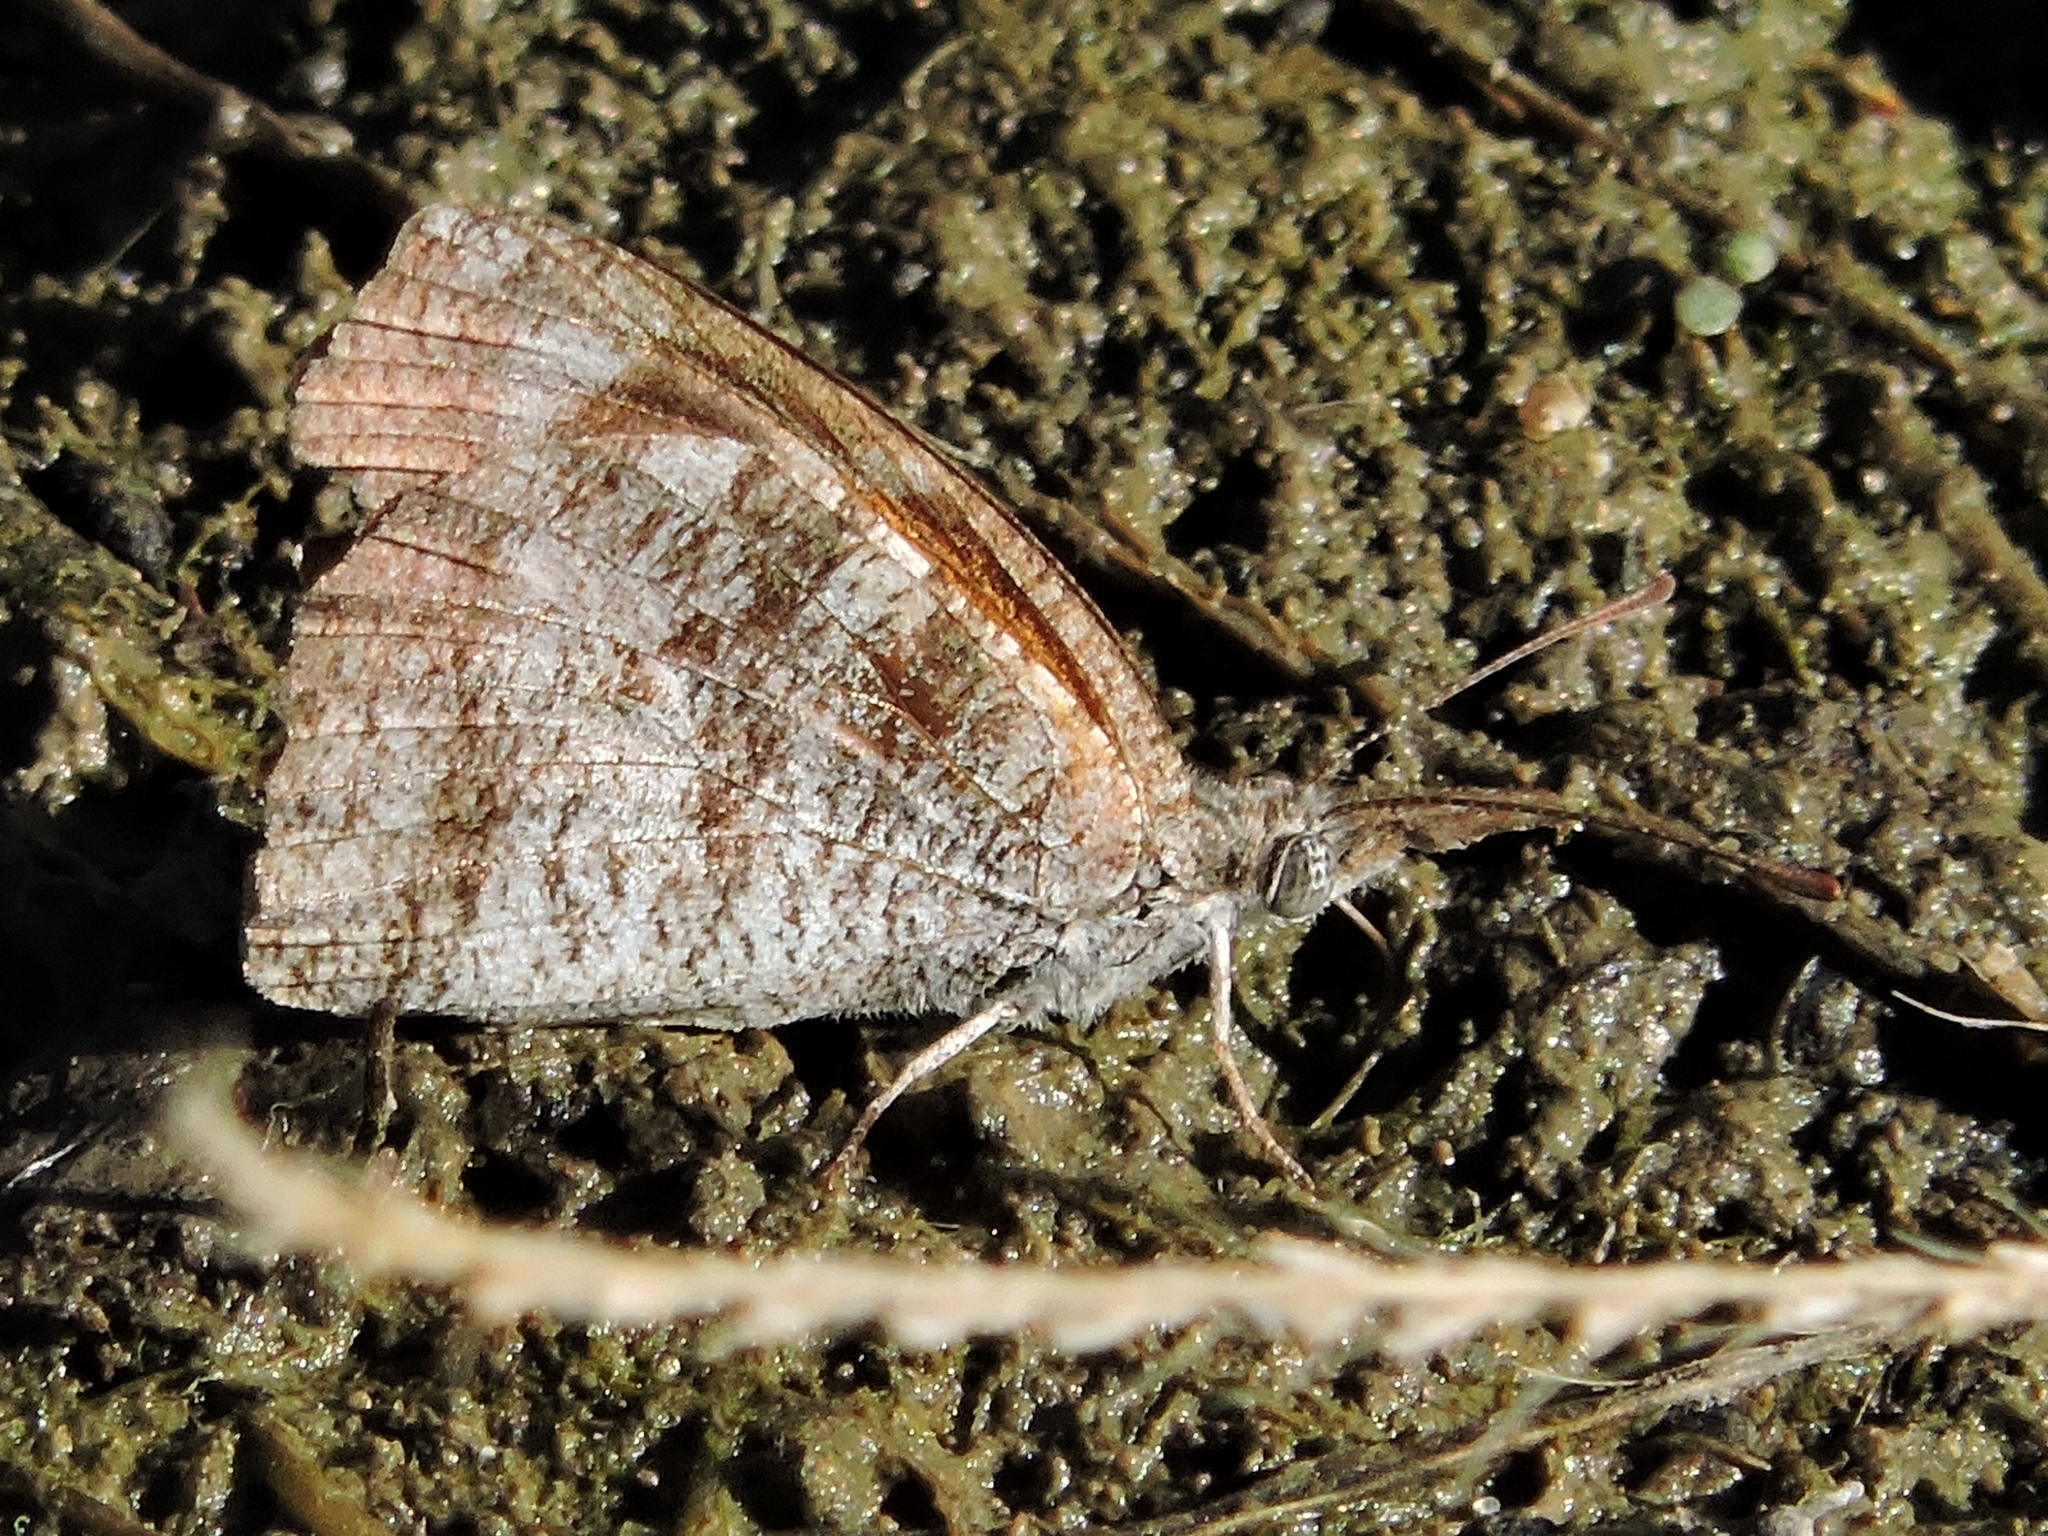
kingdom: Animalia
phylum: Arthropoda
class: Insecta
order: Lepidoptera
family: Nymphalidae
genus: Libytheana
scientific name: Libytheana carinenta
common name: American snout
